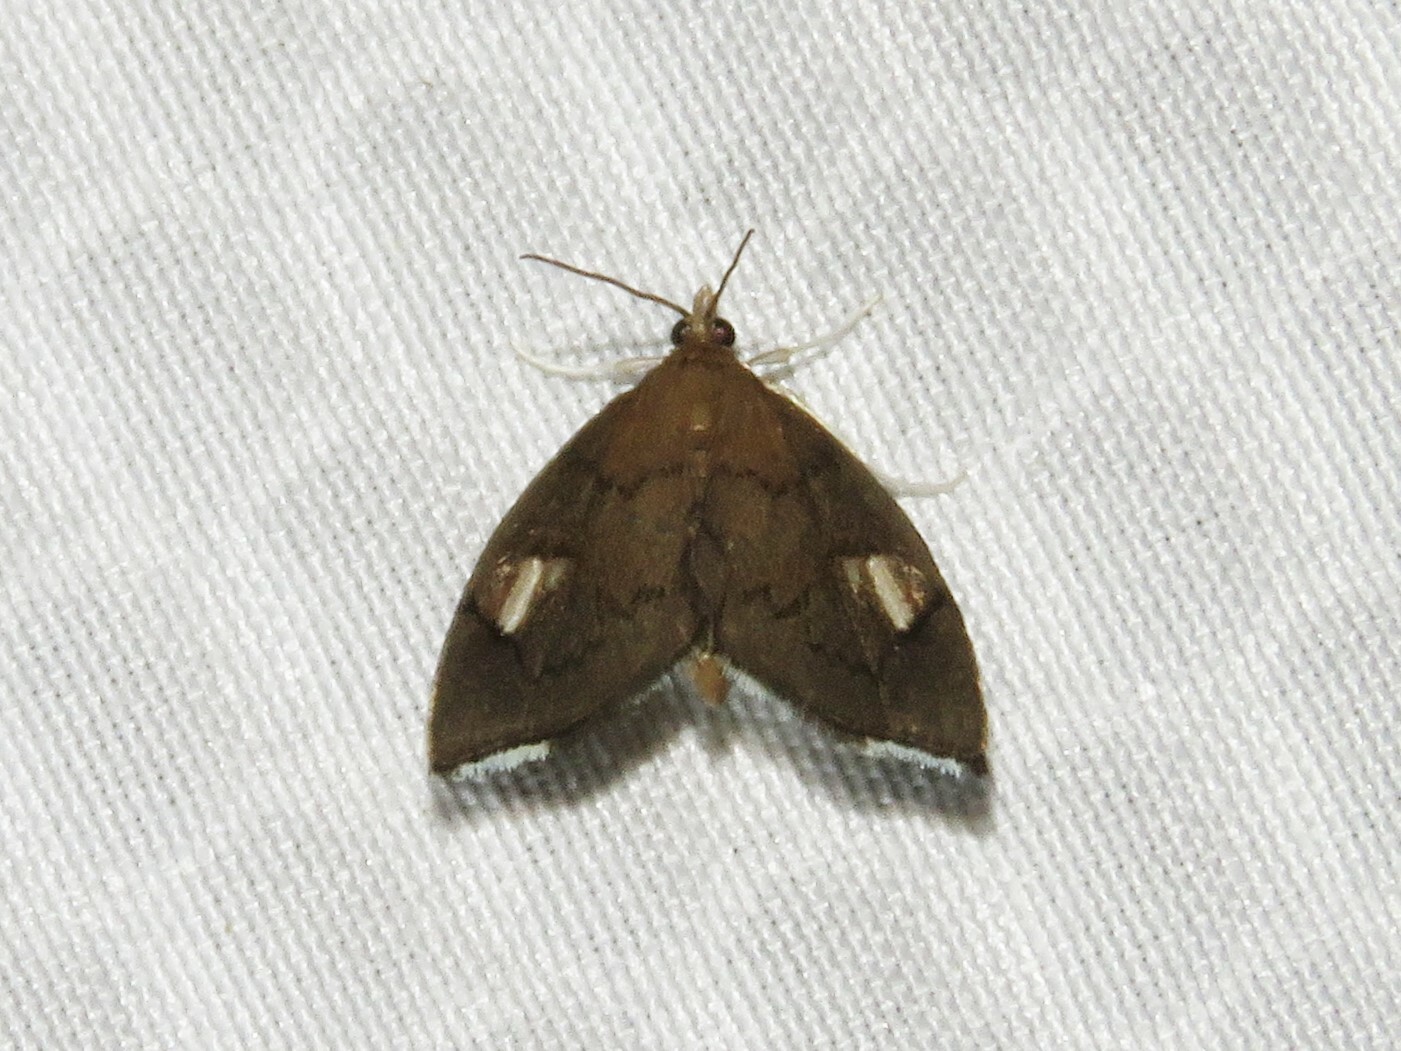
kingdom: Animalia
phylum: Arthropoda
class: Insecta
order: Lepidoptera
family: Crambidae
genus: Perispasta
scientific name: Perispasta caeculalis
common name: Titian peale's moth
